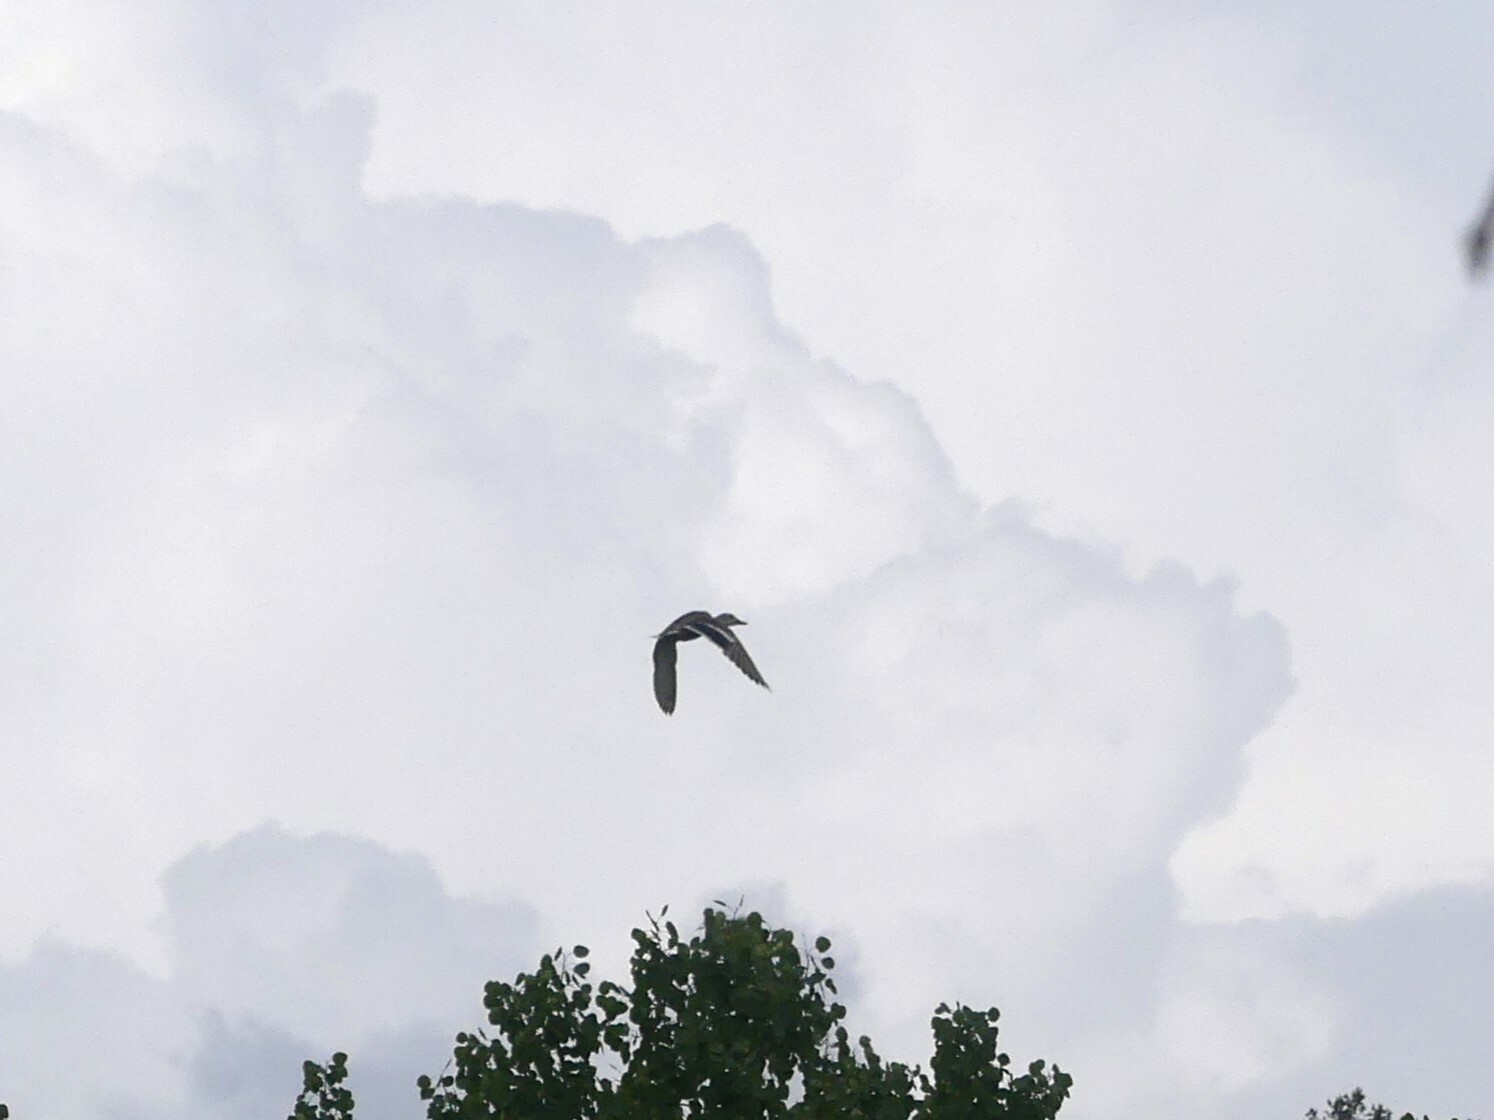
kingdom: Animalia
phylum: Chordata
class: Aves
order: Anseriformes
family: Anatidae
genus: Anas
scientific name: Anas platyrhynchos
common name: Mallard
